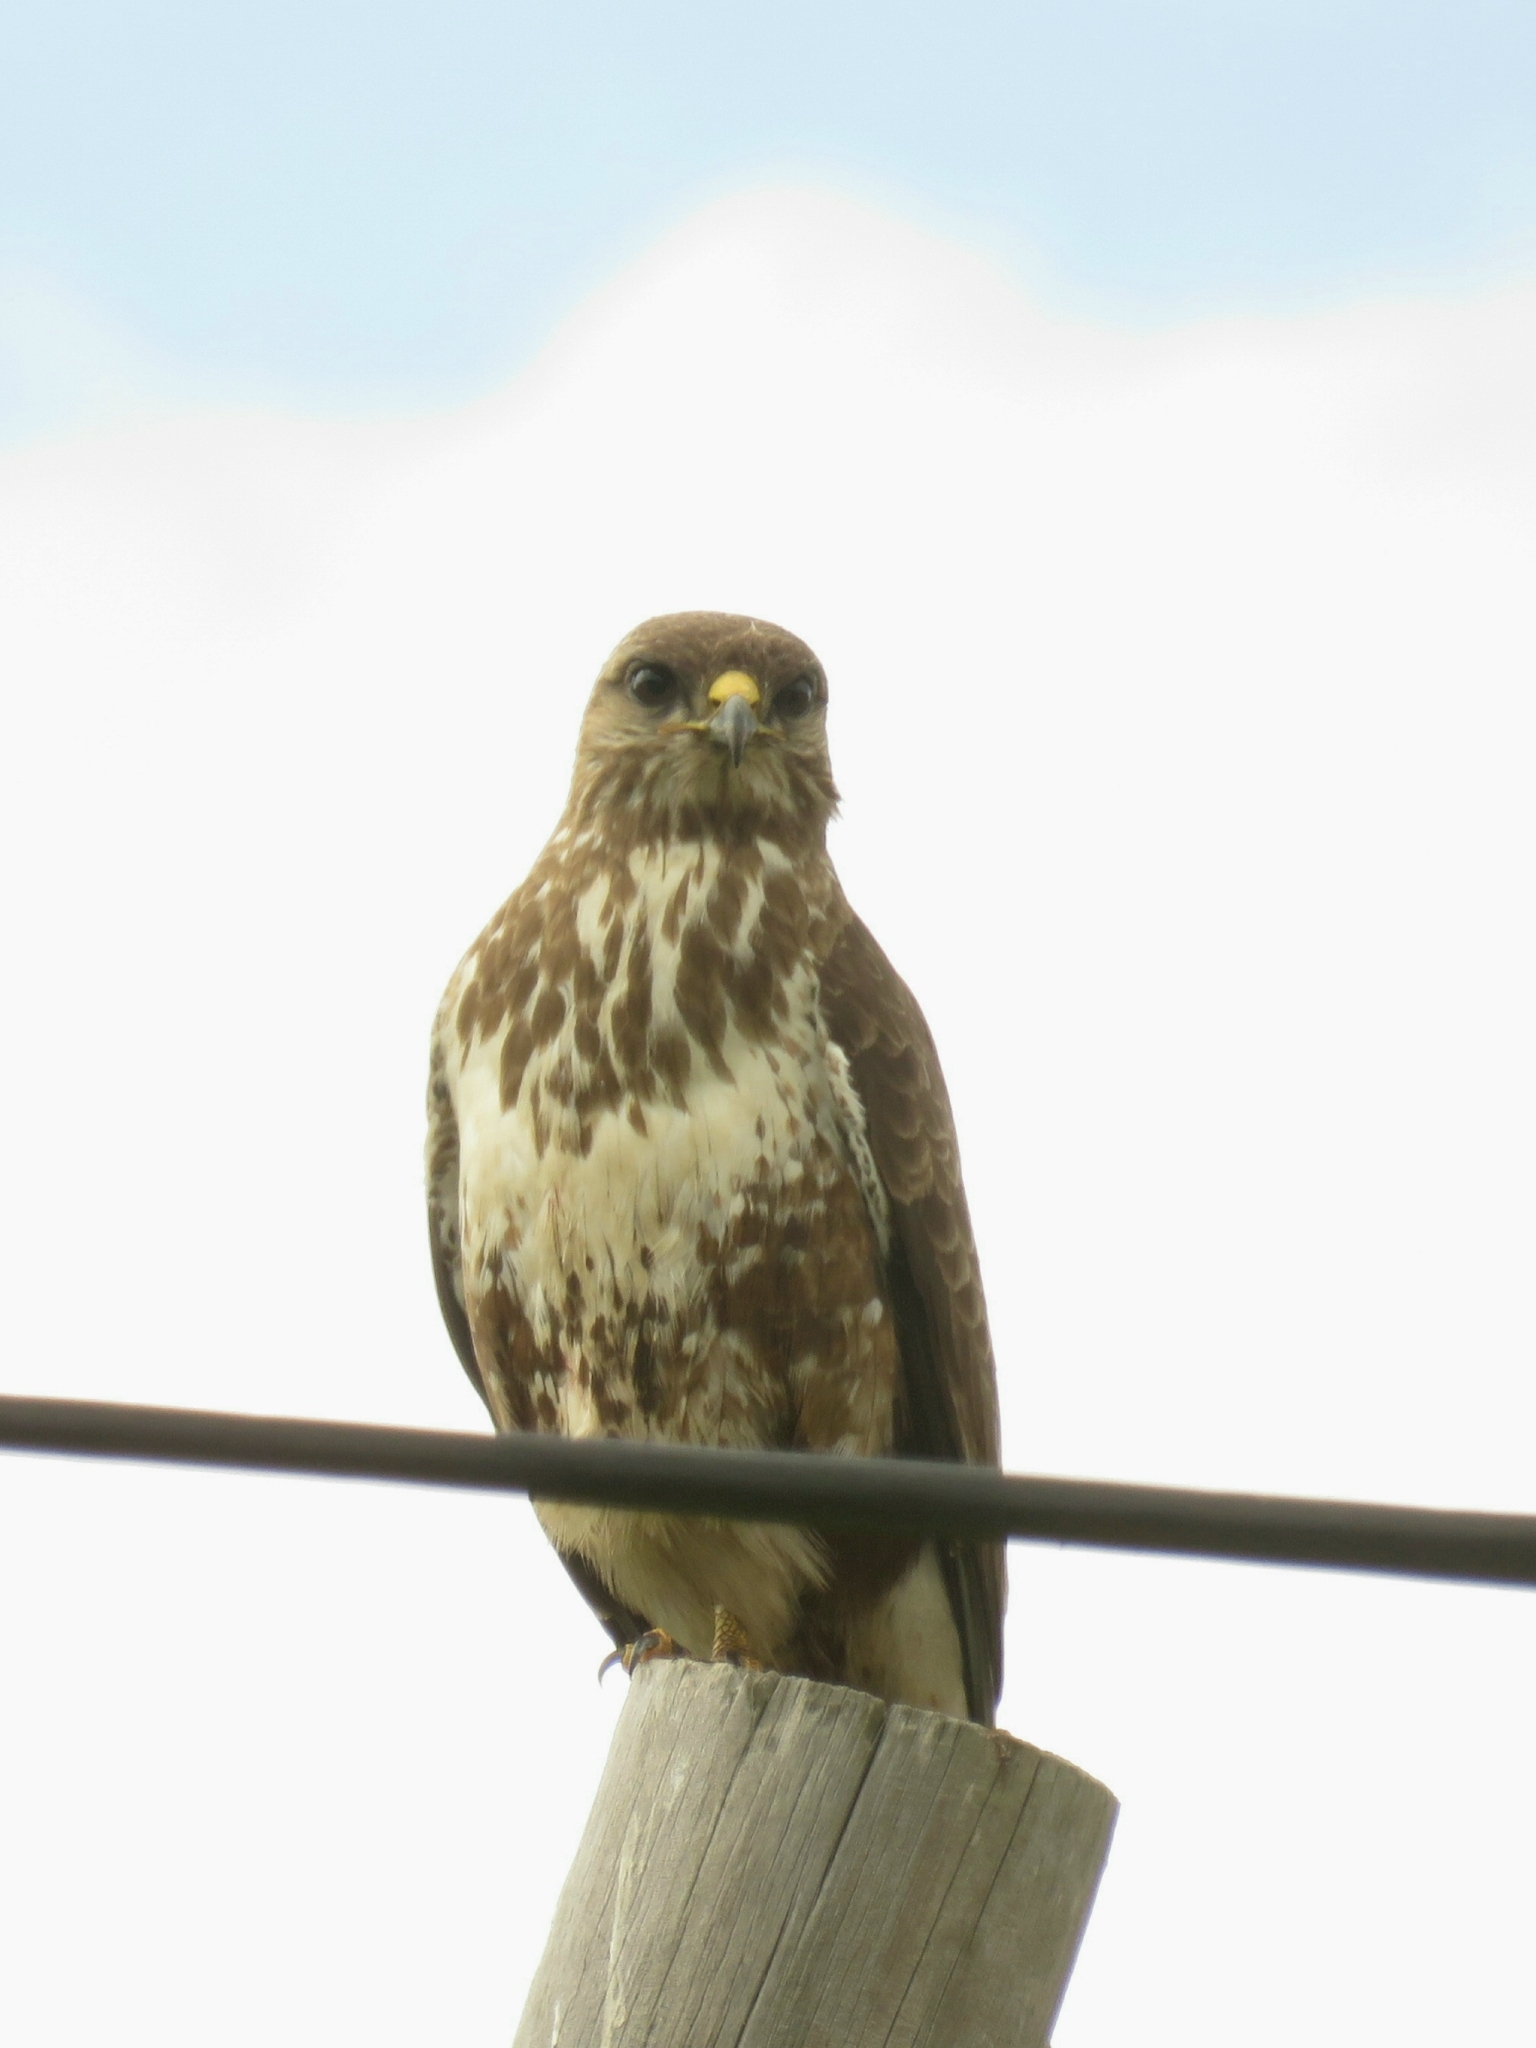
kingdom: Animalia
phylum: Chordata
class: Aves
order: Accipitriformes
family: Accipitridae
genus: Buteo
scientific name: Buteo trizonatus
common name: Forest buzzard
